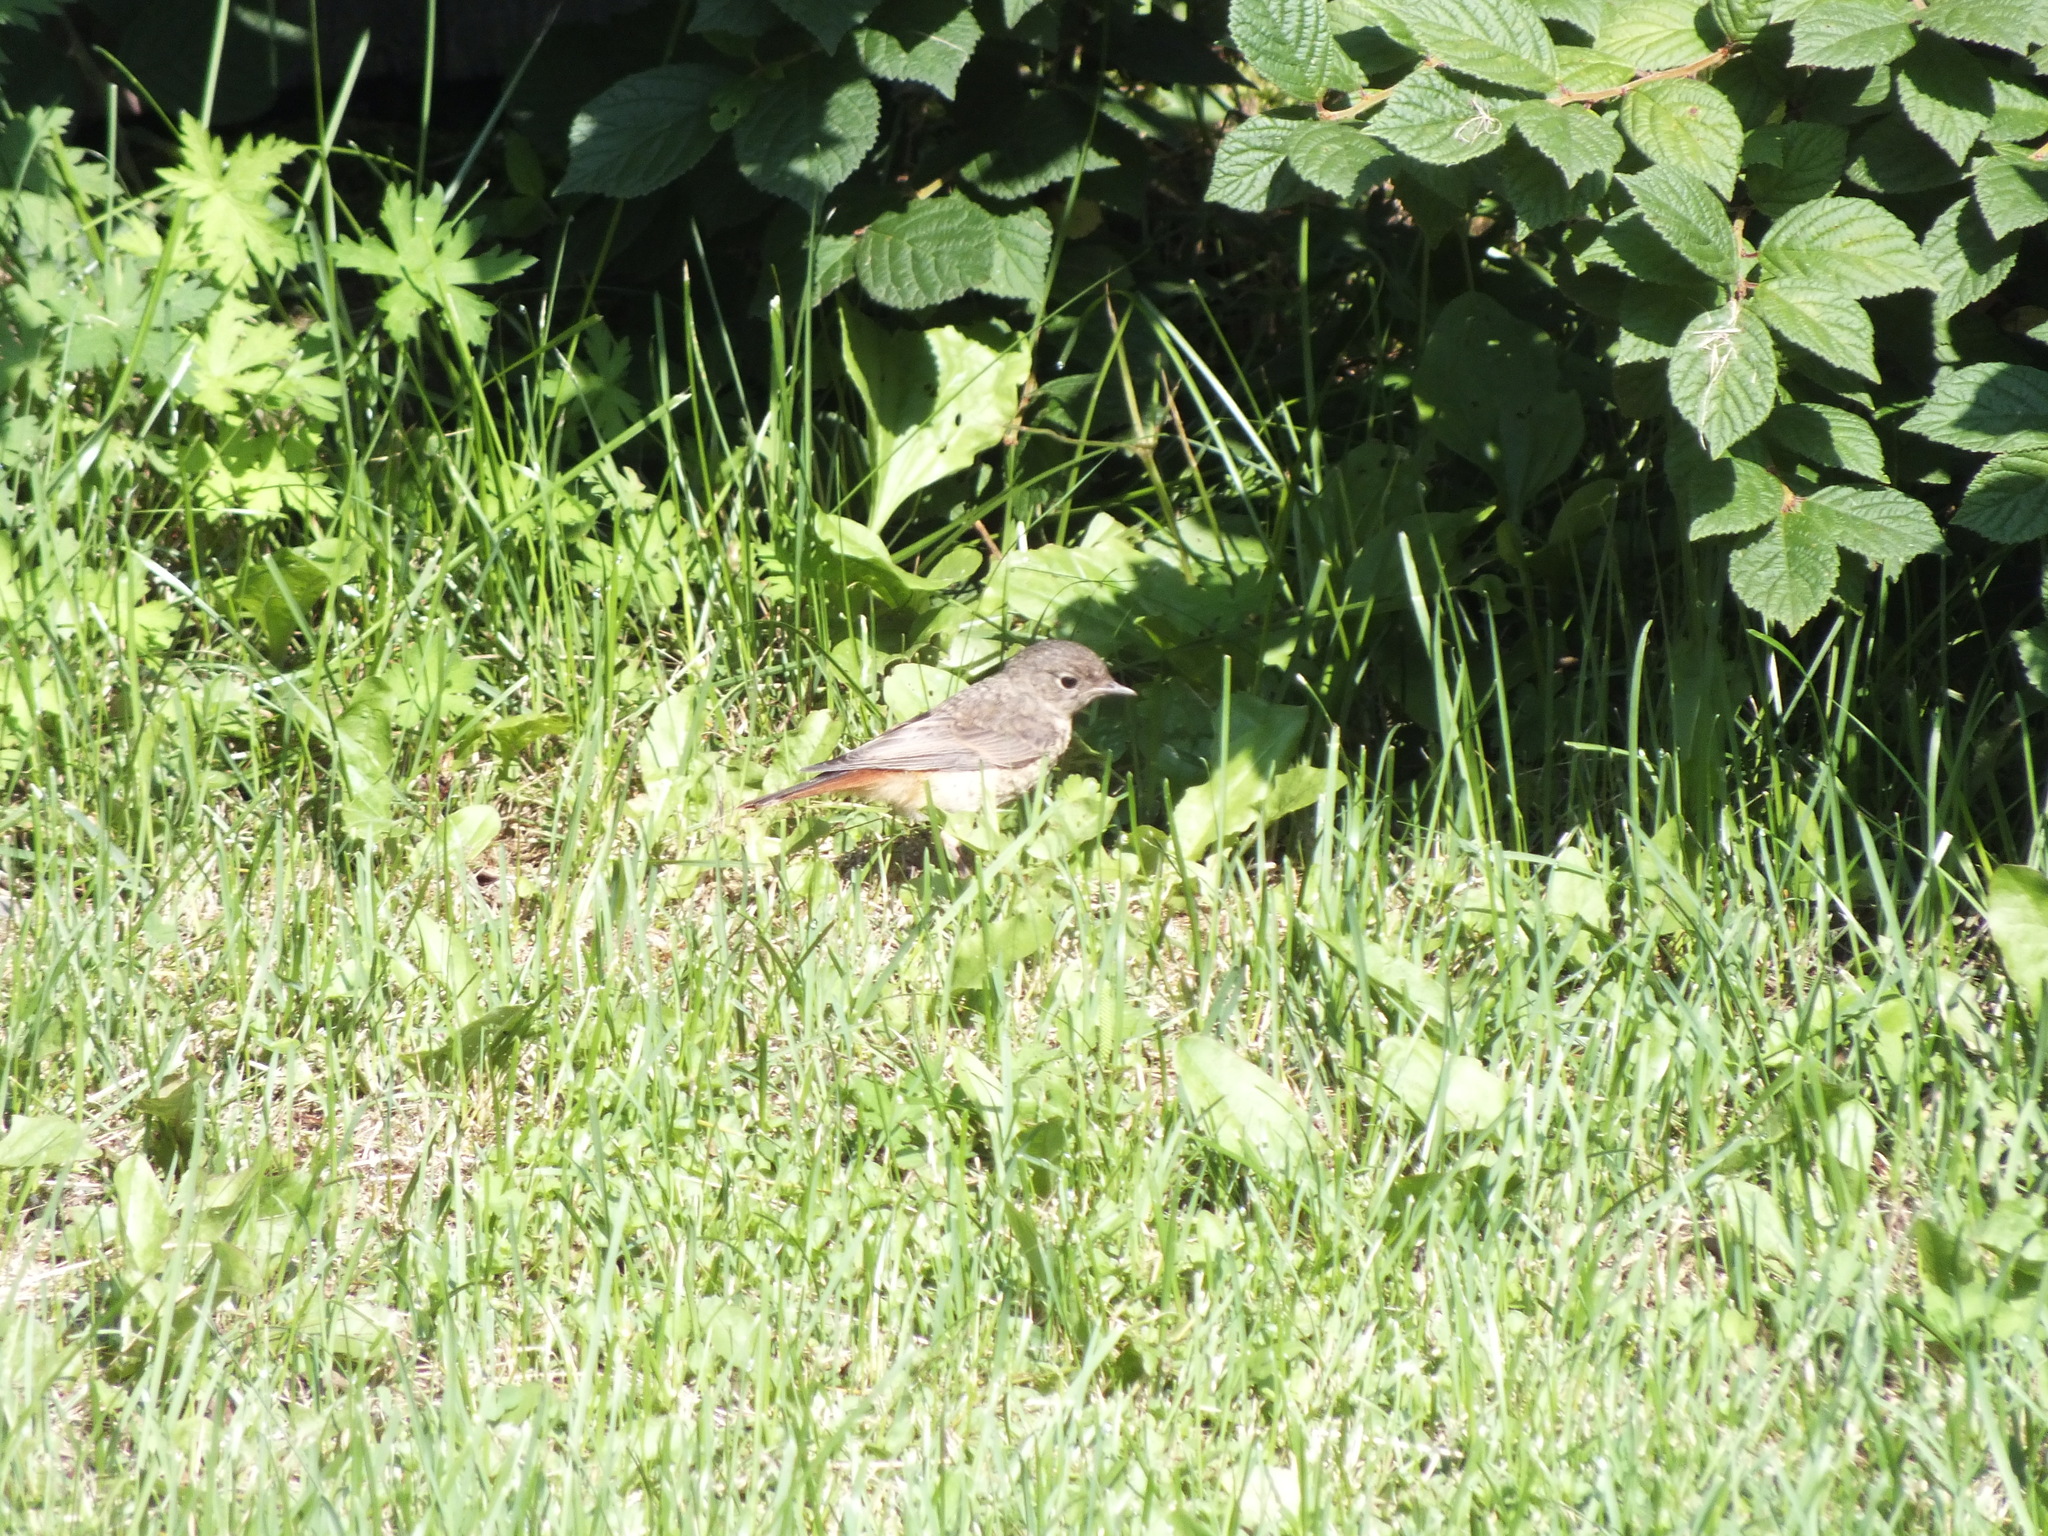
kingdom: Animalia
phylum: Chordata
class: Aves
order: Passeriformes
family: Muscicapidae
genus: Phoenicurus
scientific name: Phoenicurus phoenicurus
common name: Common redstart
